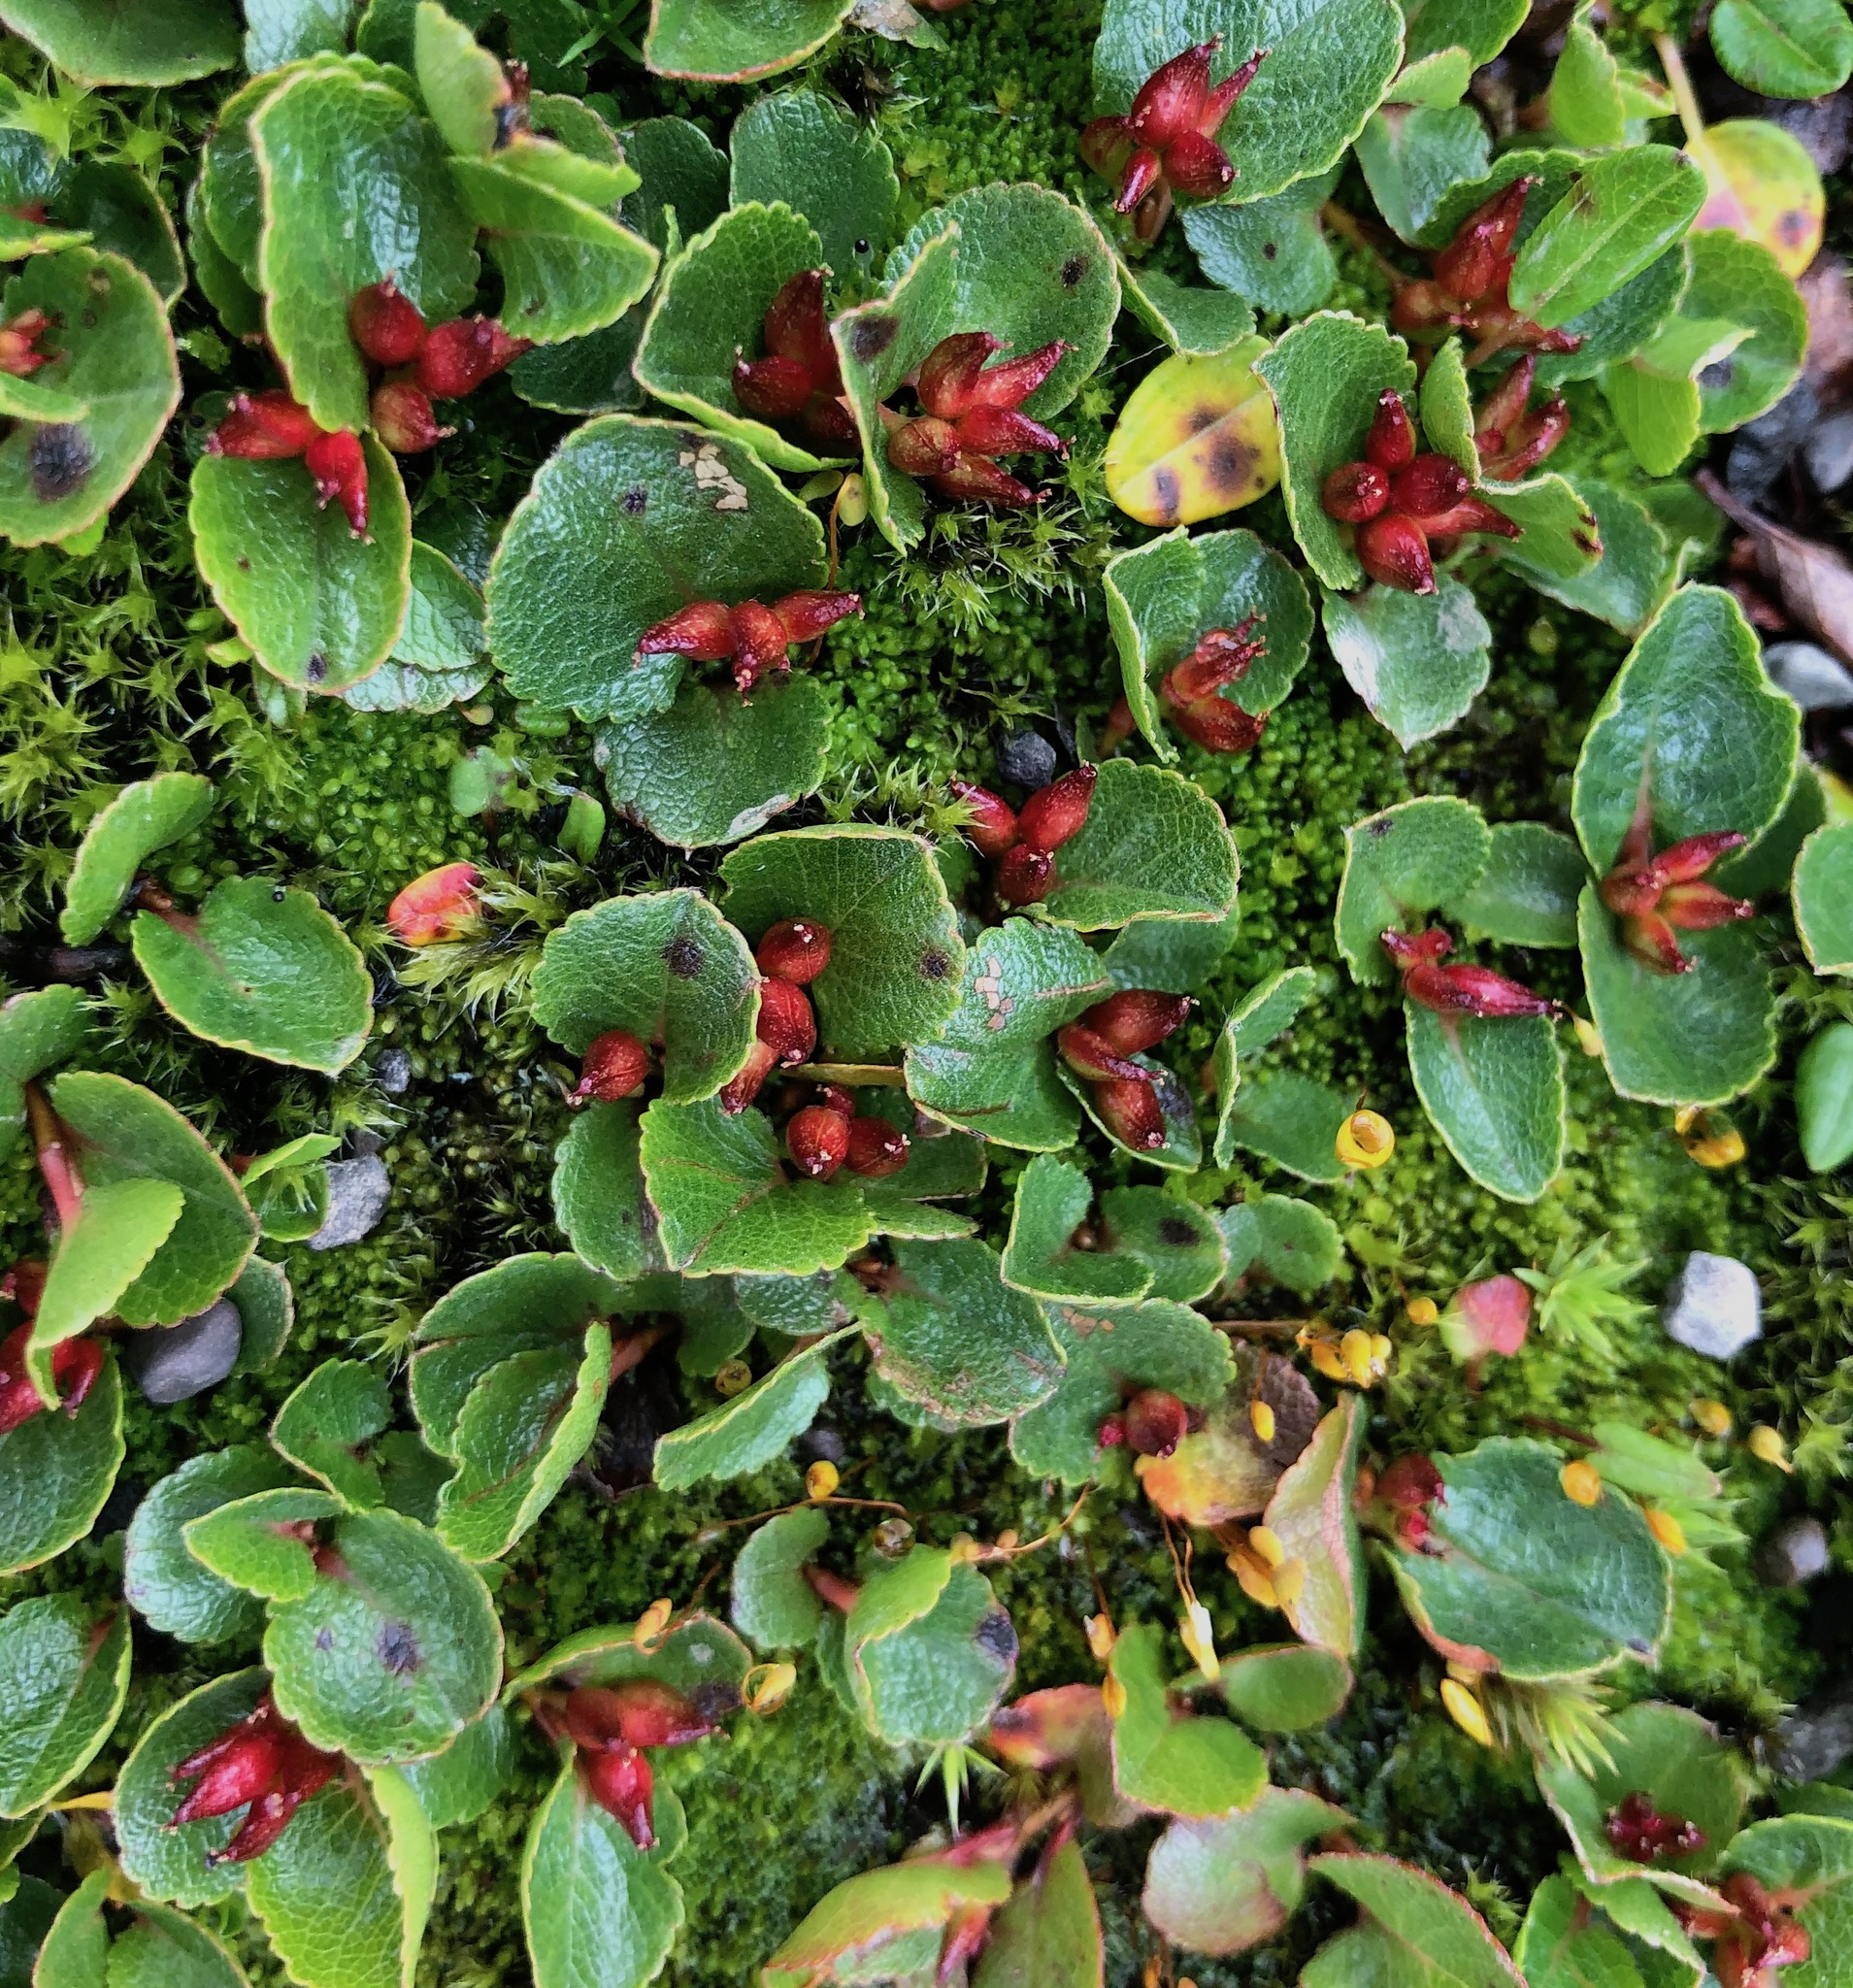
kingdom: Plantae
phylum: Tracheophyta
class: Magnoliopsida
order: Malpighiales
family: Salicaceae
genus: Salix
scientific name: Salix herbacea
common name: Dwarf willow
